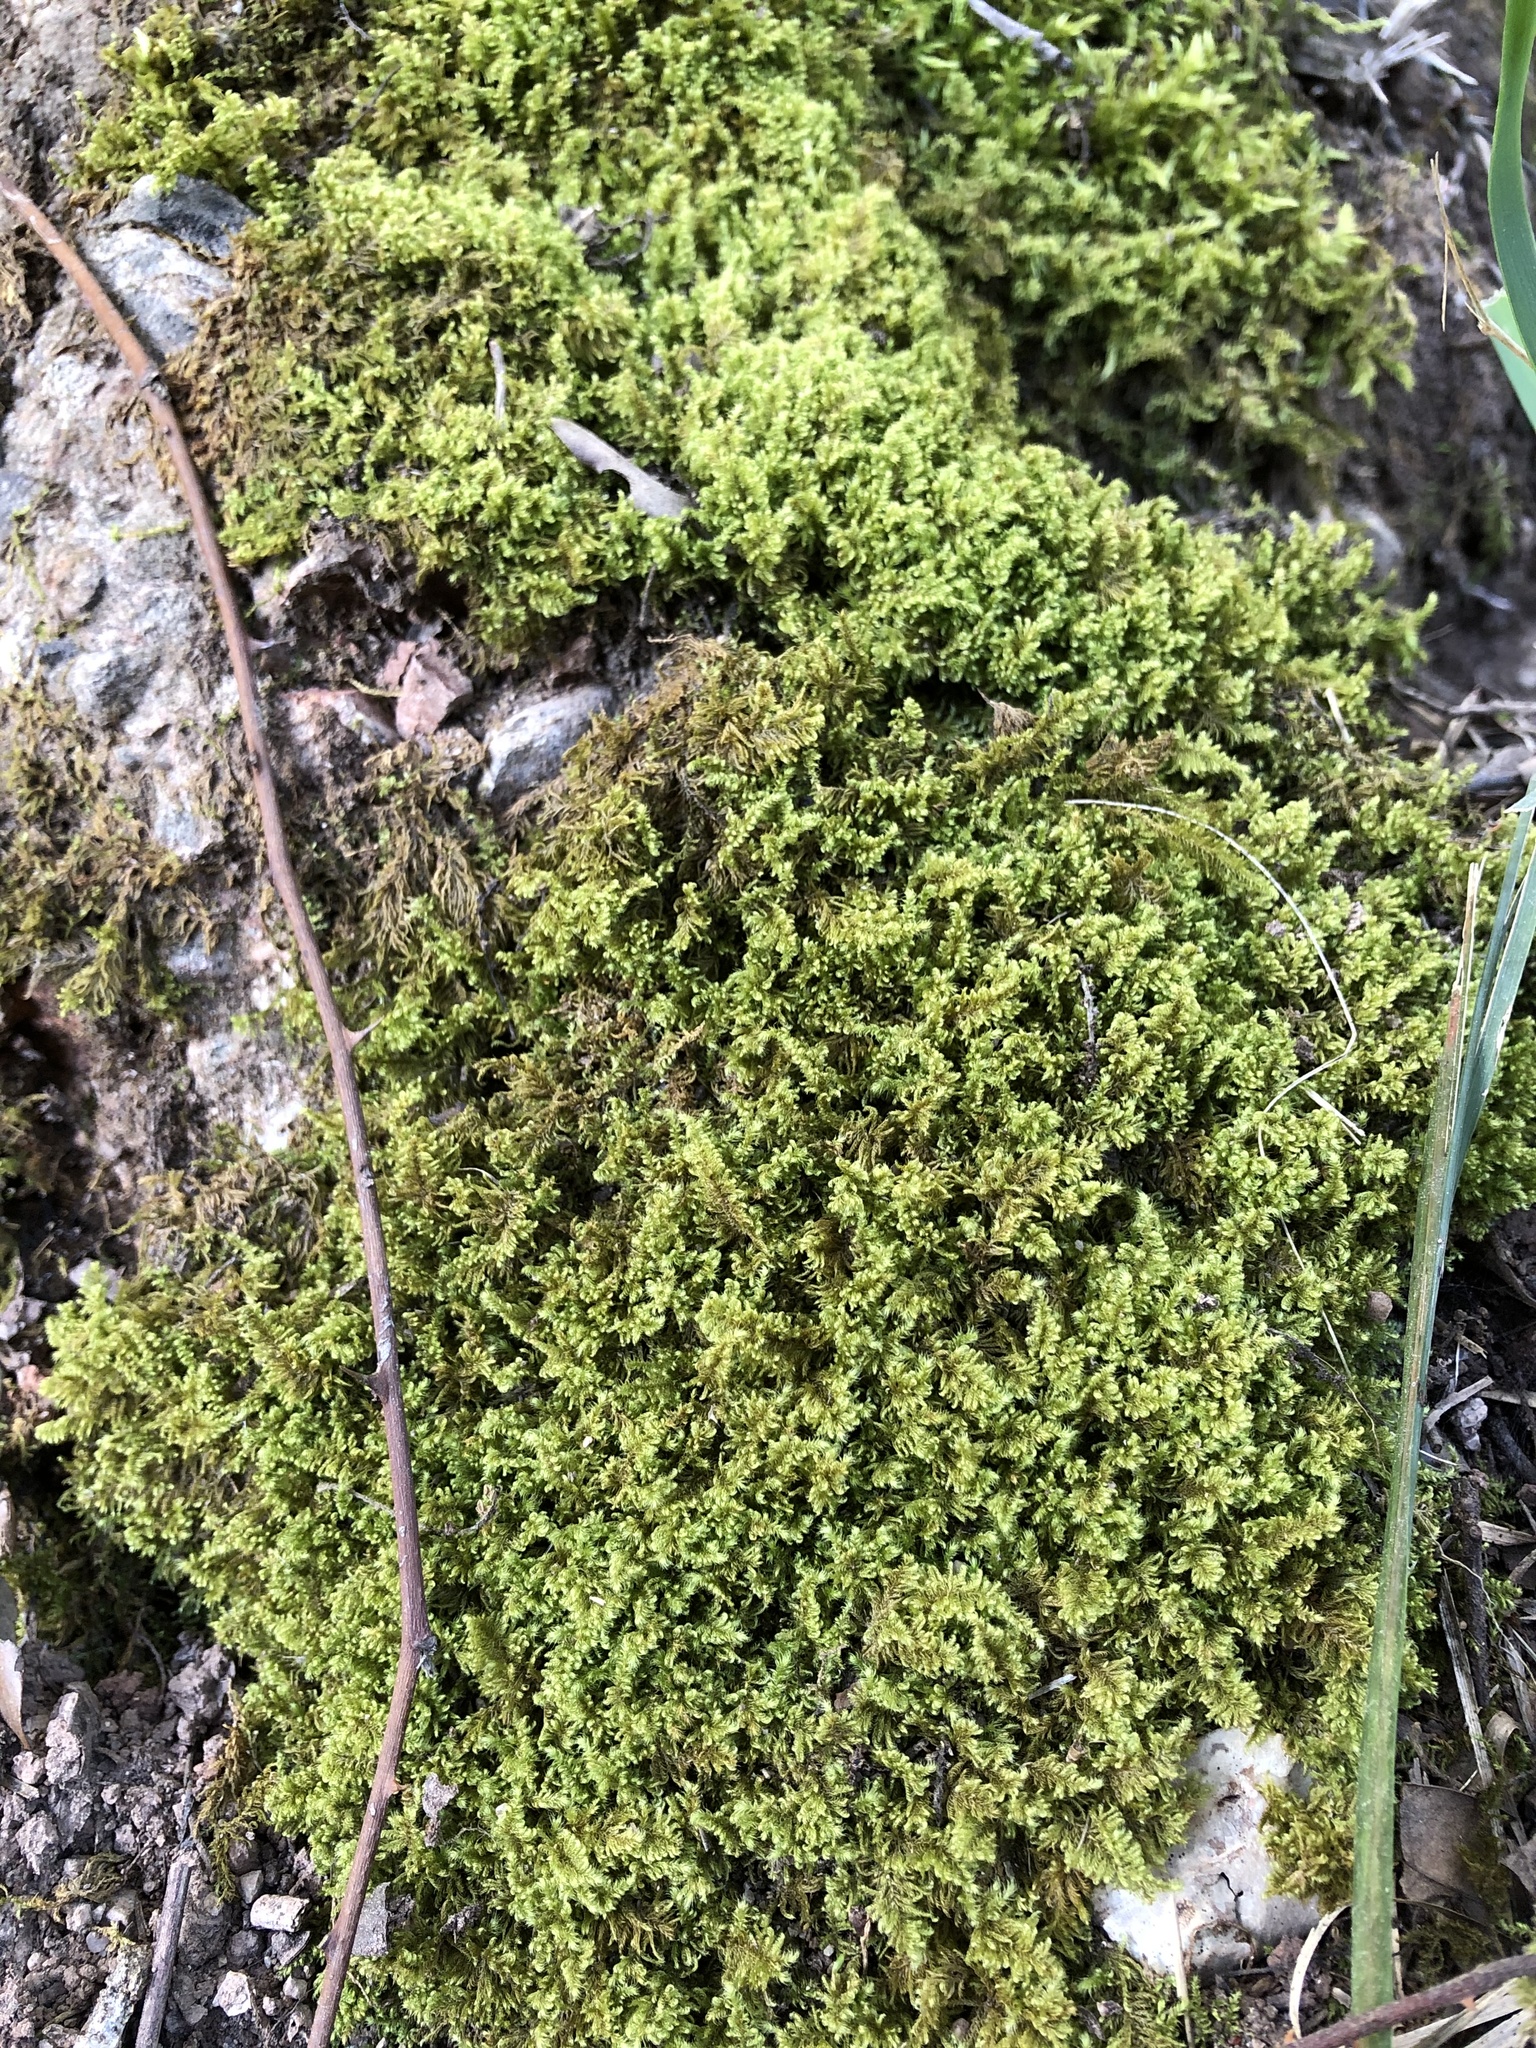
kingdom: Plantae
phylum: Bryophyta
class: Bryopsida
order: Hypnales
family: Myuriaceae
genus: Ctenidium
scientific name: Ctenidium molluscum
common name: Chalk comb-moss
